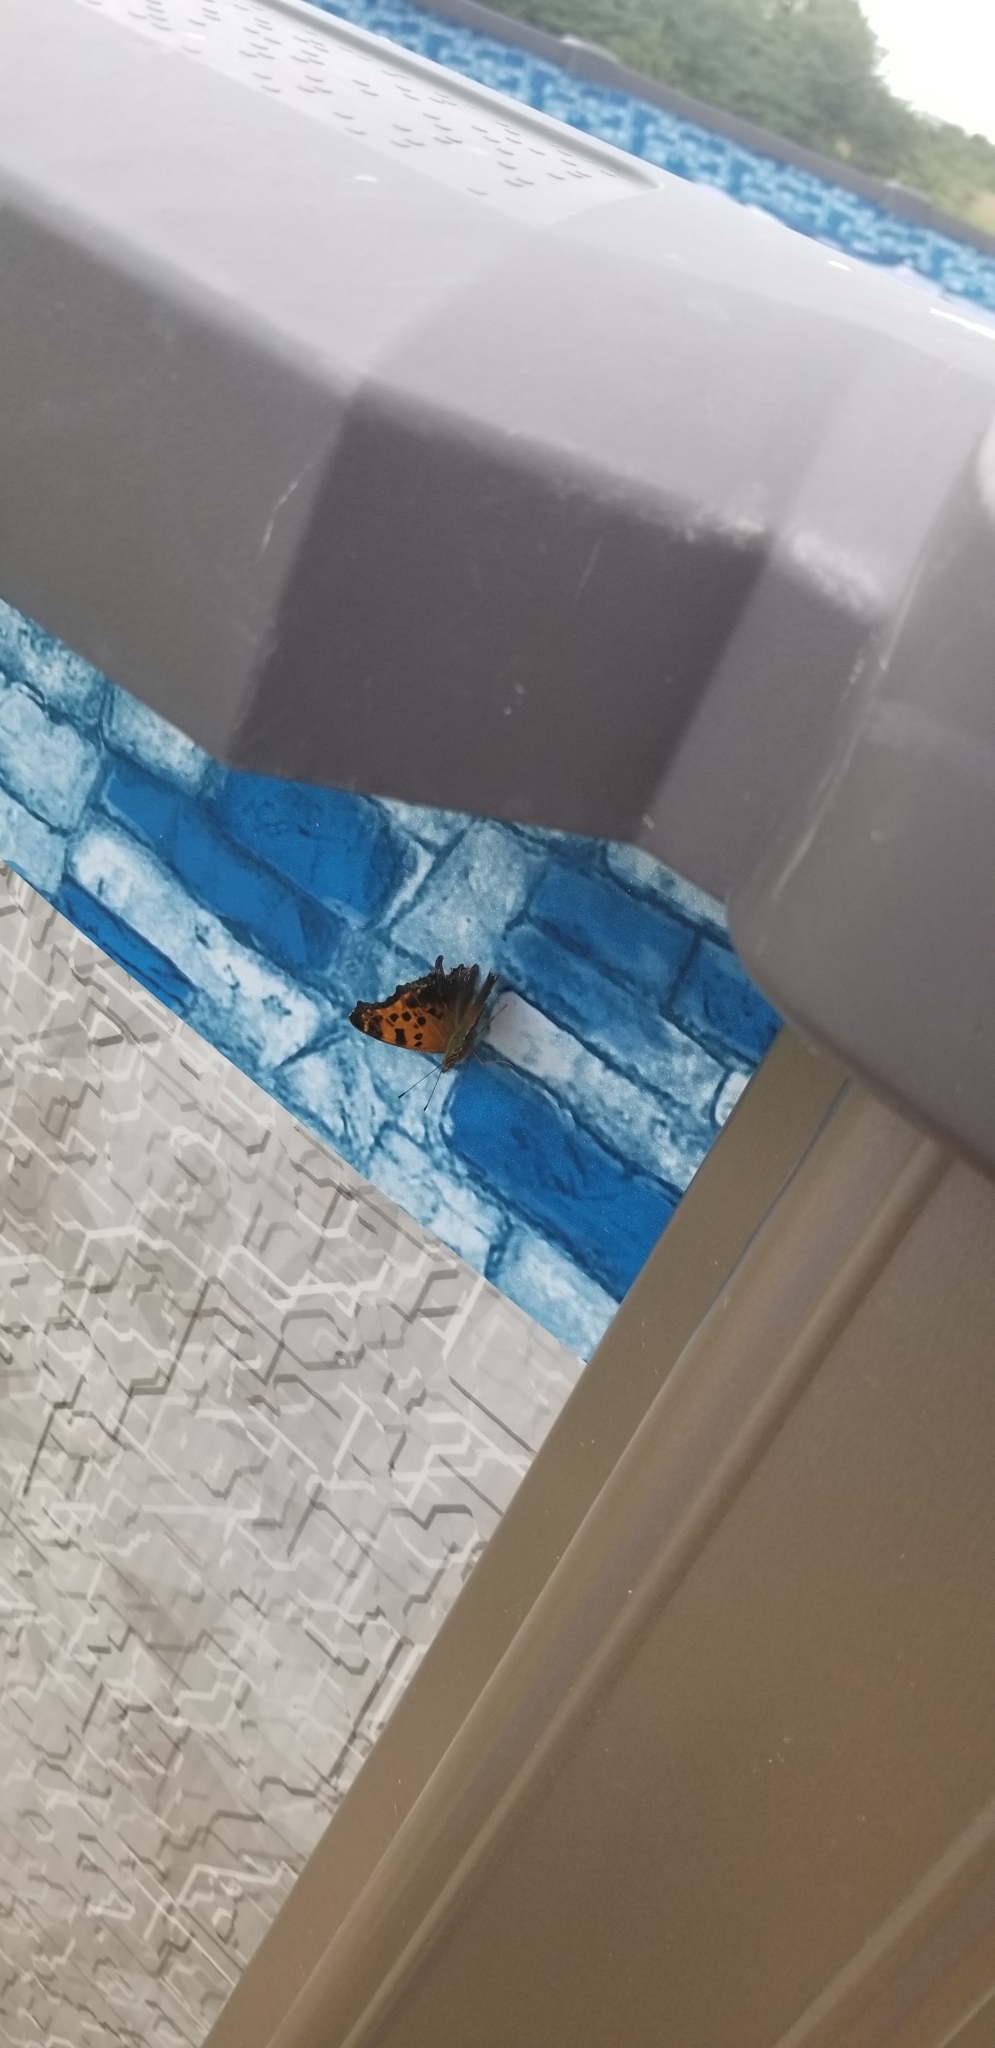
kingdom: Animalia
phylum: Arthropoda
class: Insecta
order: Lepidoptera
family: Nymphalidae
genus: Polygonia
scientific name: Polygonia interrogationis
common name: Question mark
